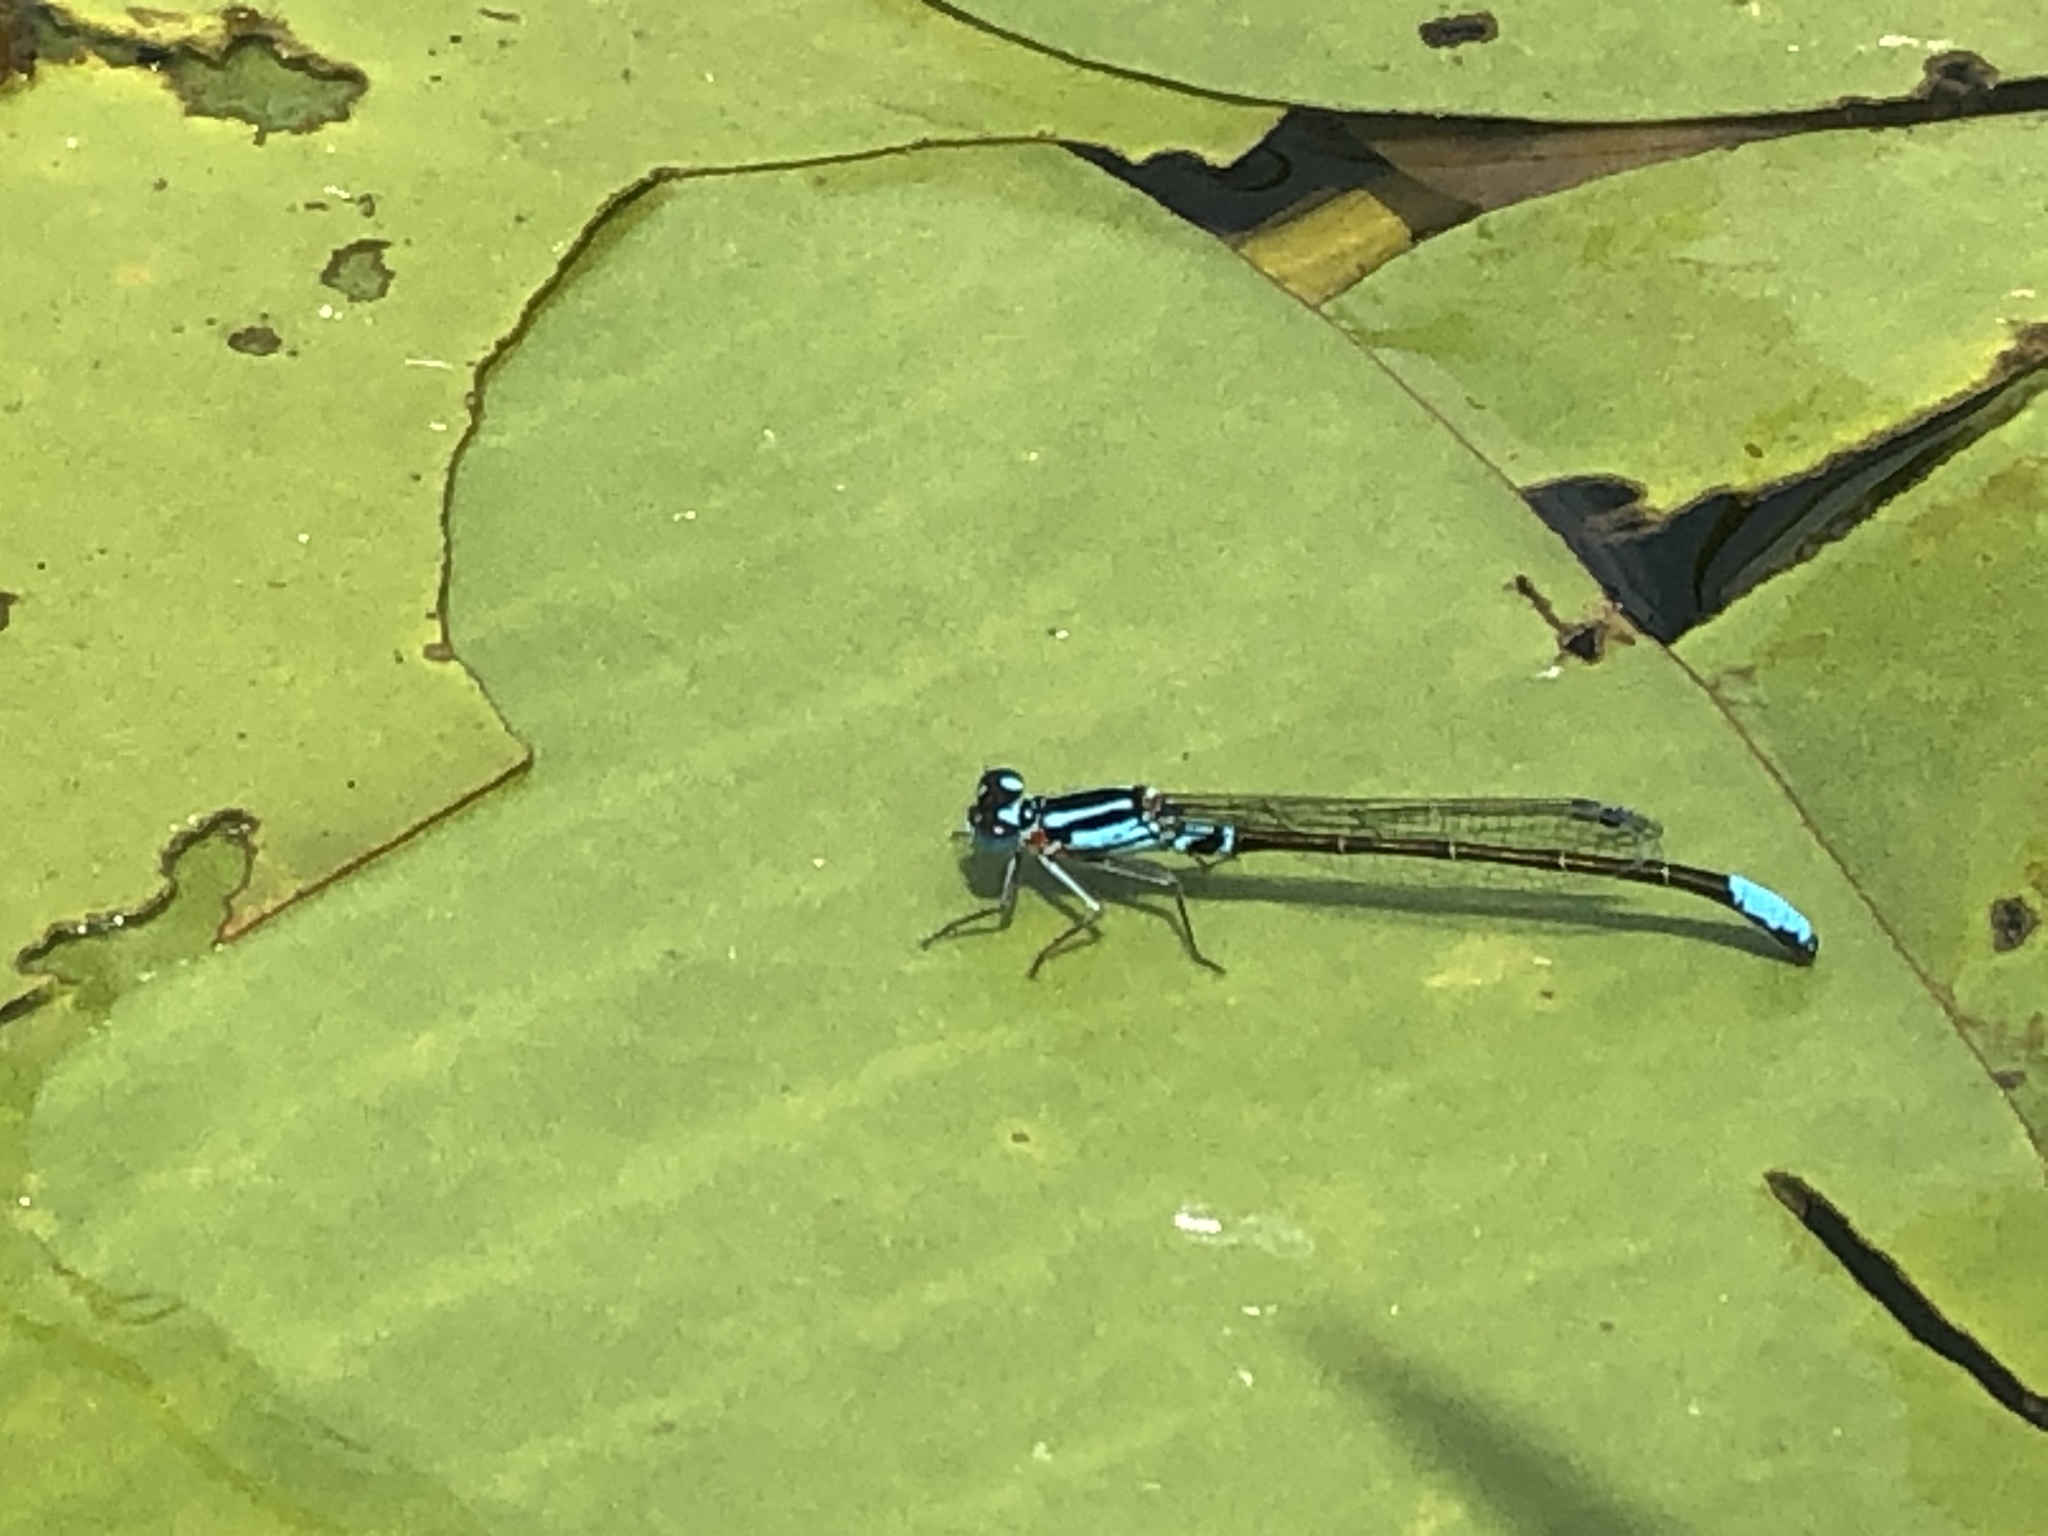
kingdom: Animalia
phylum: Arthropoda
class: Insecta
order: Odonata
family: Coenagrionidae
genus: Ischnura
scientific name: Ischnura kellicotti
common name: Lilypad forktail
